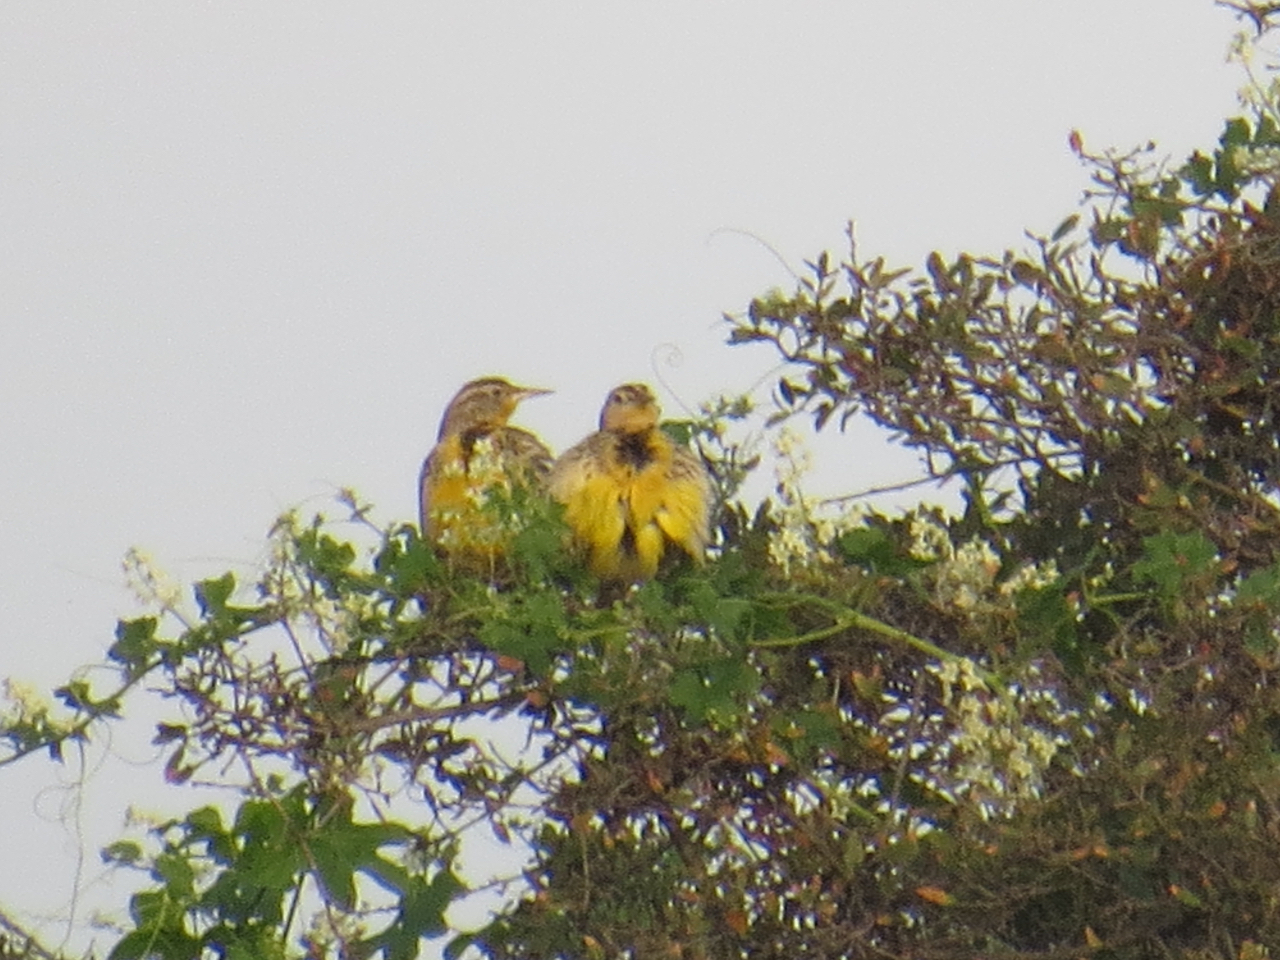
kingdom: Animalia
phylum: Chordata
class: Aves
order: Passeriformes
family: Icteridae
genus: Sturnella
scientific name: Sturnella neglecta
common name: Western meadowlark
